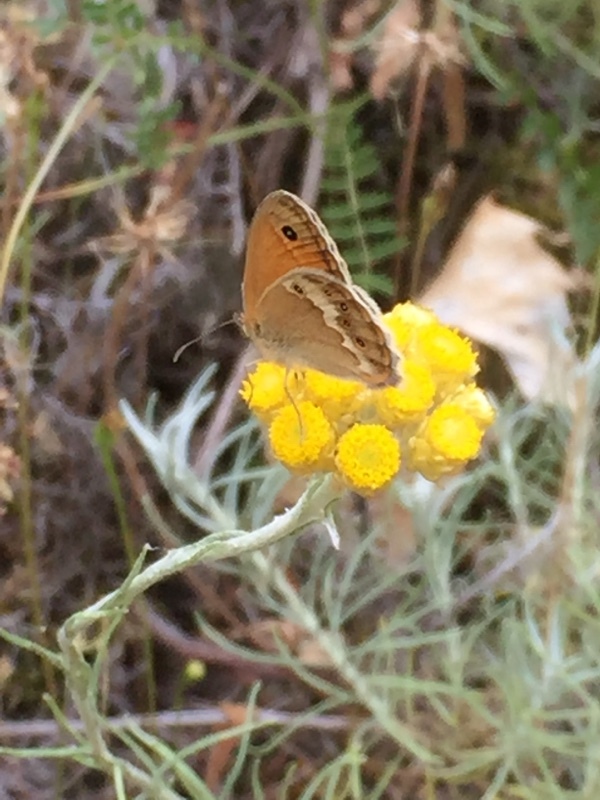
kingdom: Plantae
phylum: Tracheophyta
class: Magnoliopsida
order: Asterales
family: Asteraceae
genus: Helichrysum
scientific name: Helichrysum stoechas
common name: Goldilocks
